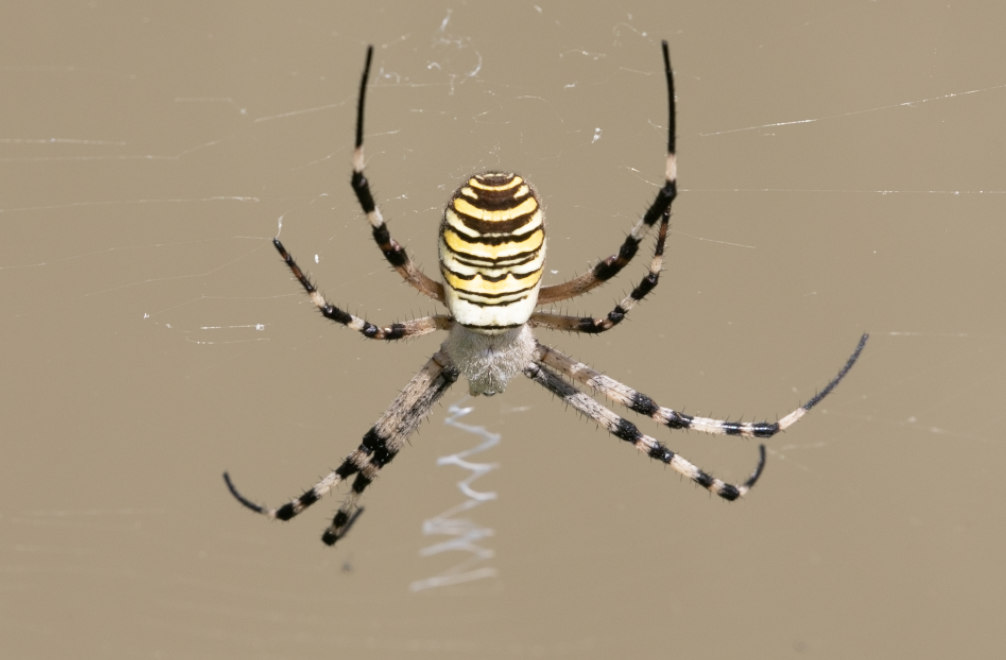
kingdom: Animalia
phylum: Arthropoda
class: Arachnida
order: Araneae
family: Araneidae
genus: Argiope
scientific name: Argiope bruennichi
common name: Wasp spider
